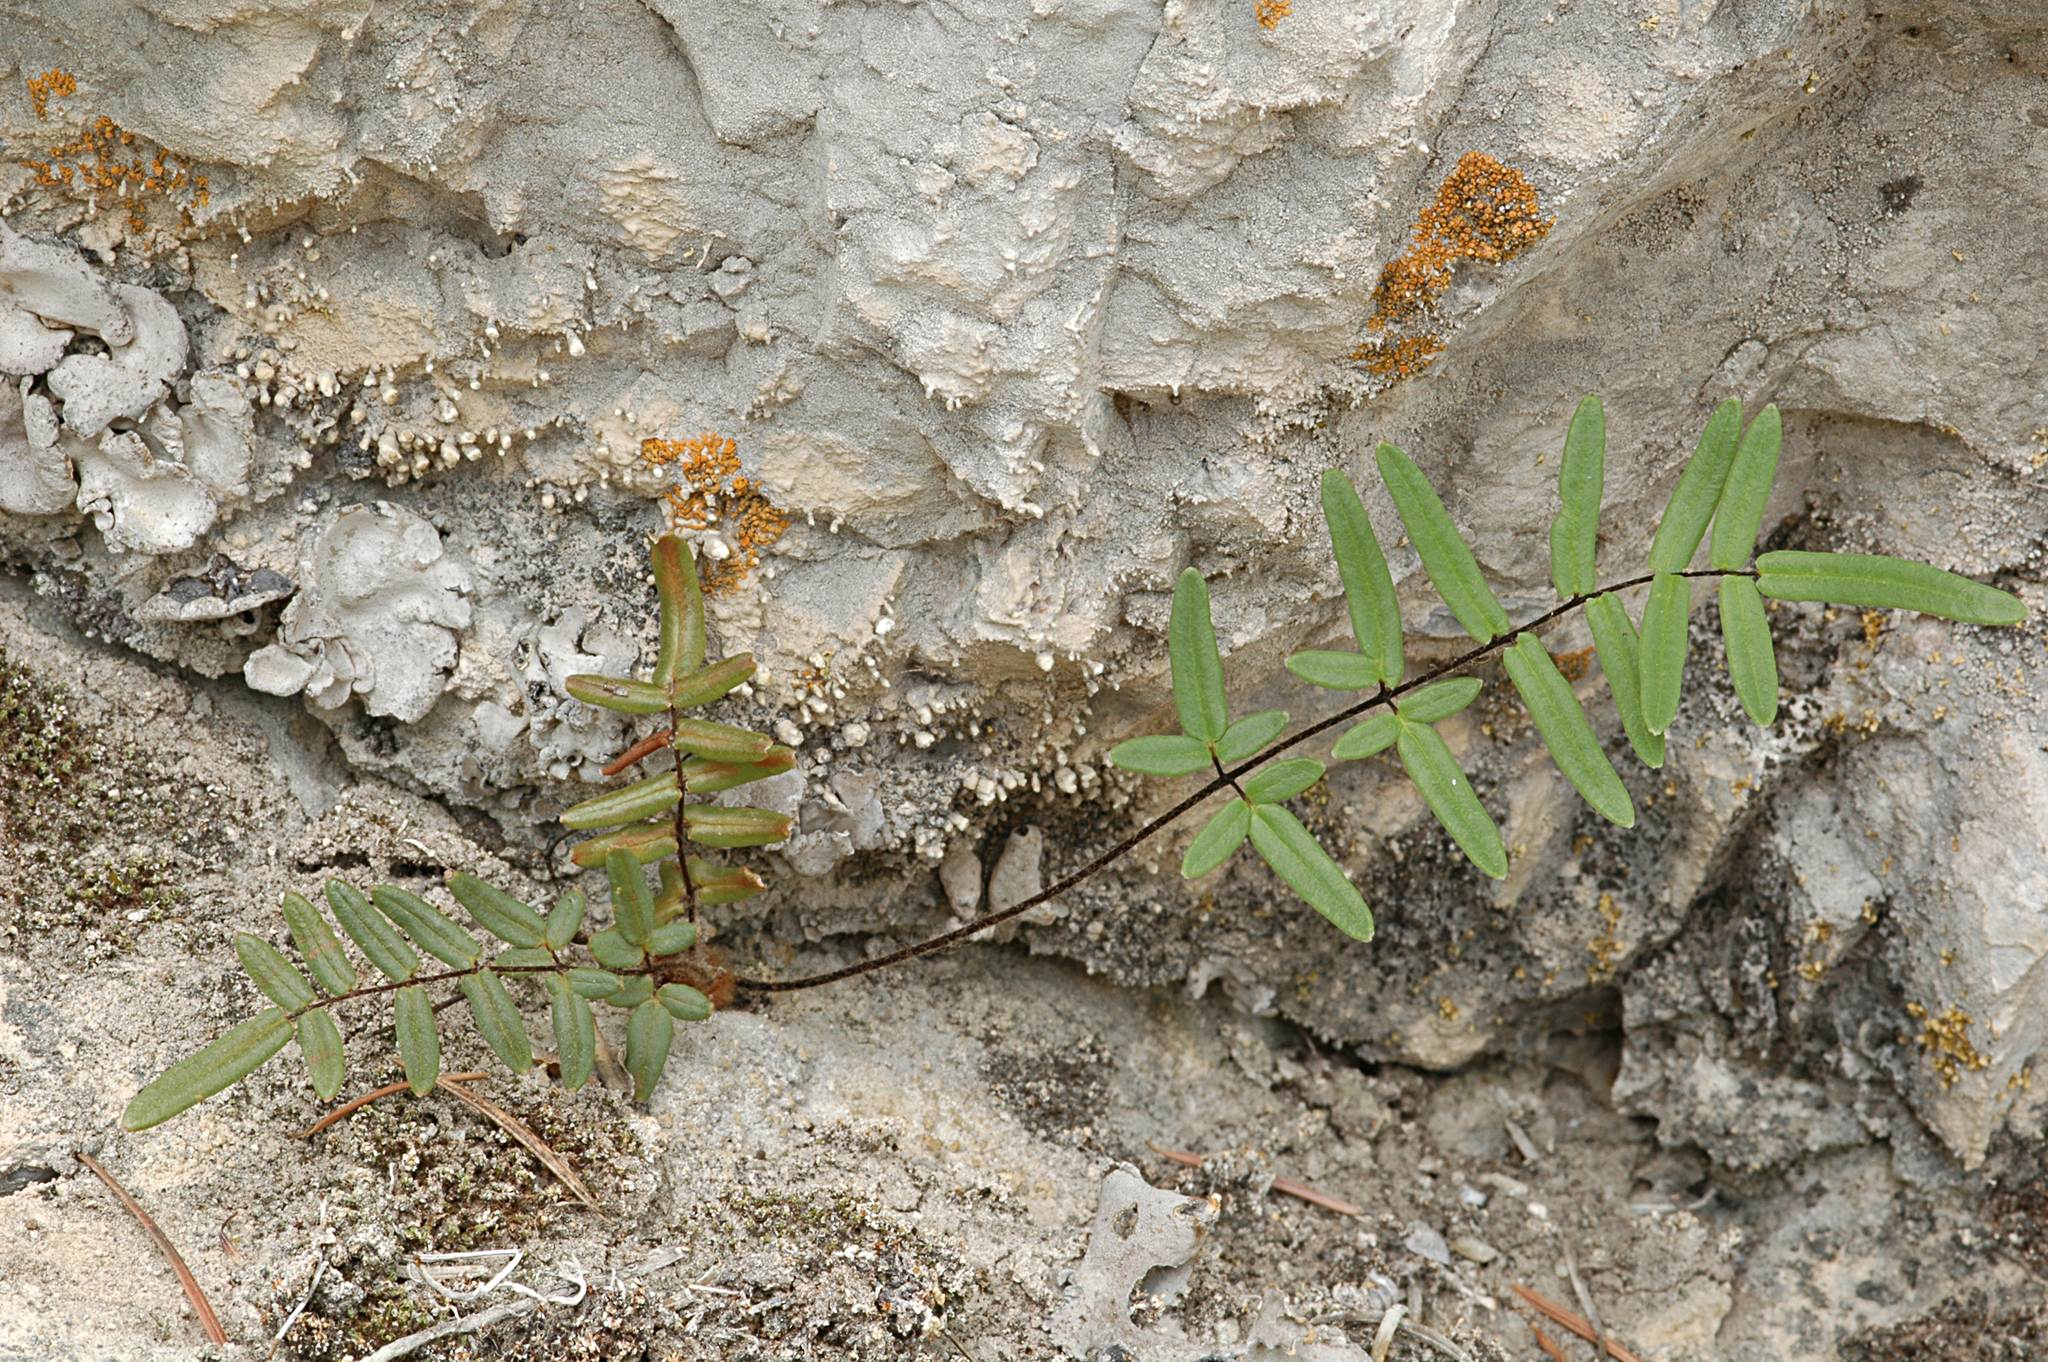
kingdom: Plantae
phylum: Tracheophyta
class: Polypodiopsida
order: Polypodiales
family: Pteridaceae
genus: Pellaea
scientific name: Pellaea gastonyi
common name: Gastony's cliffbrake
